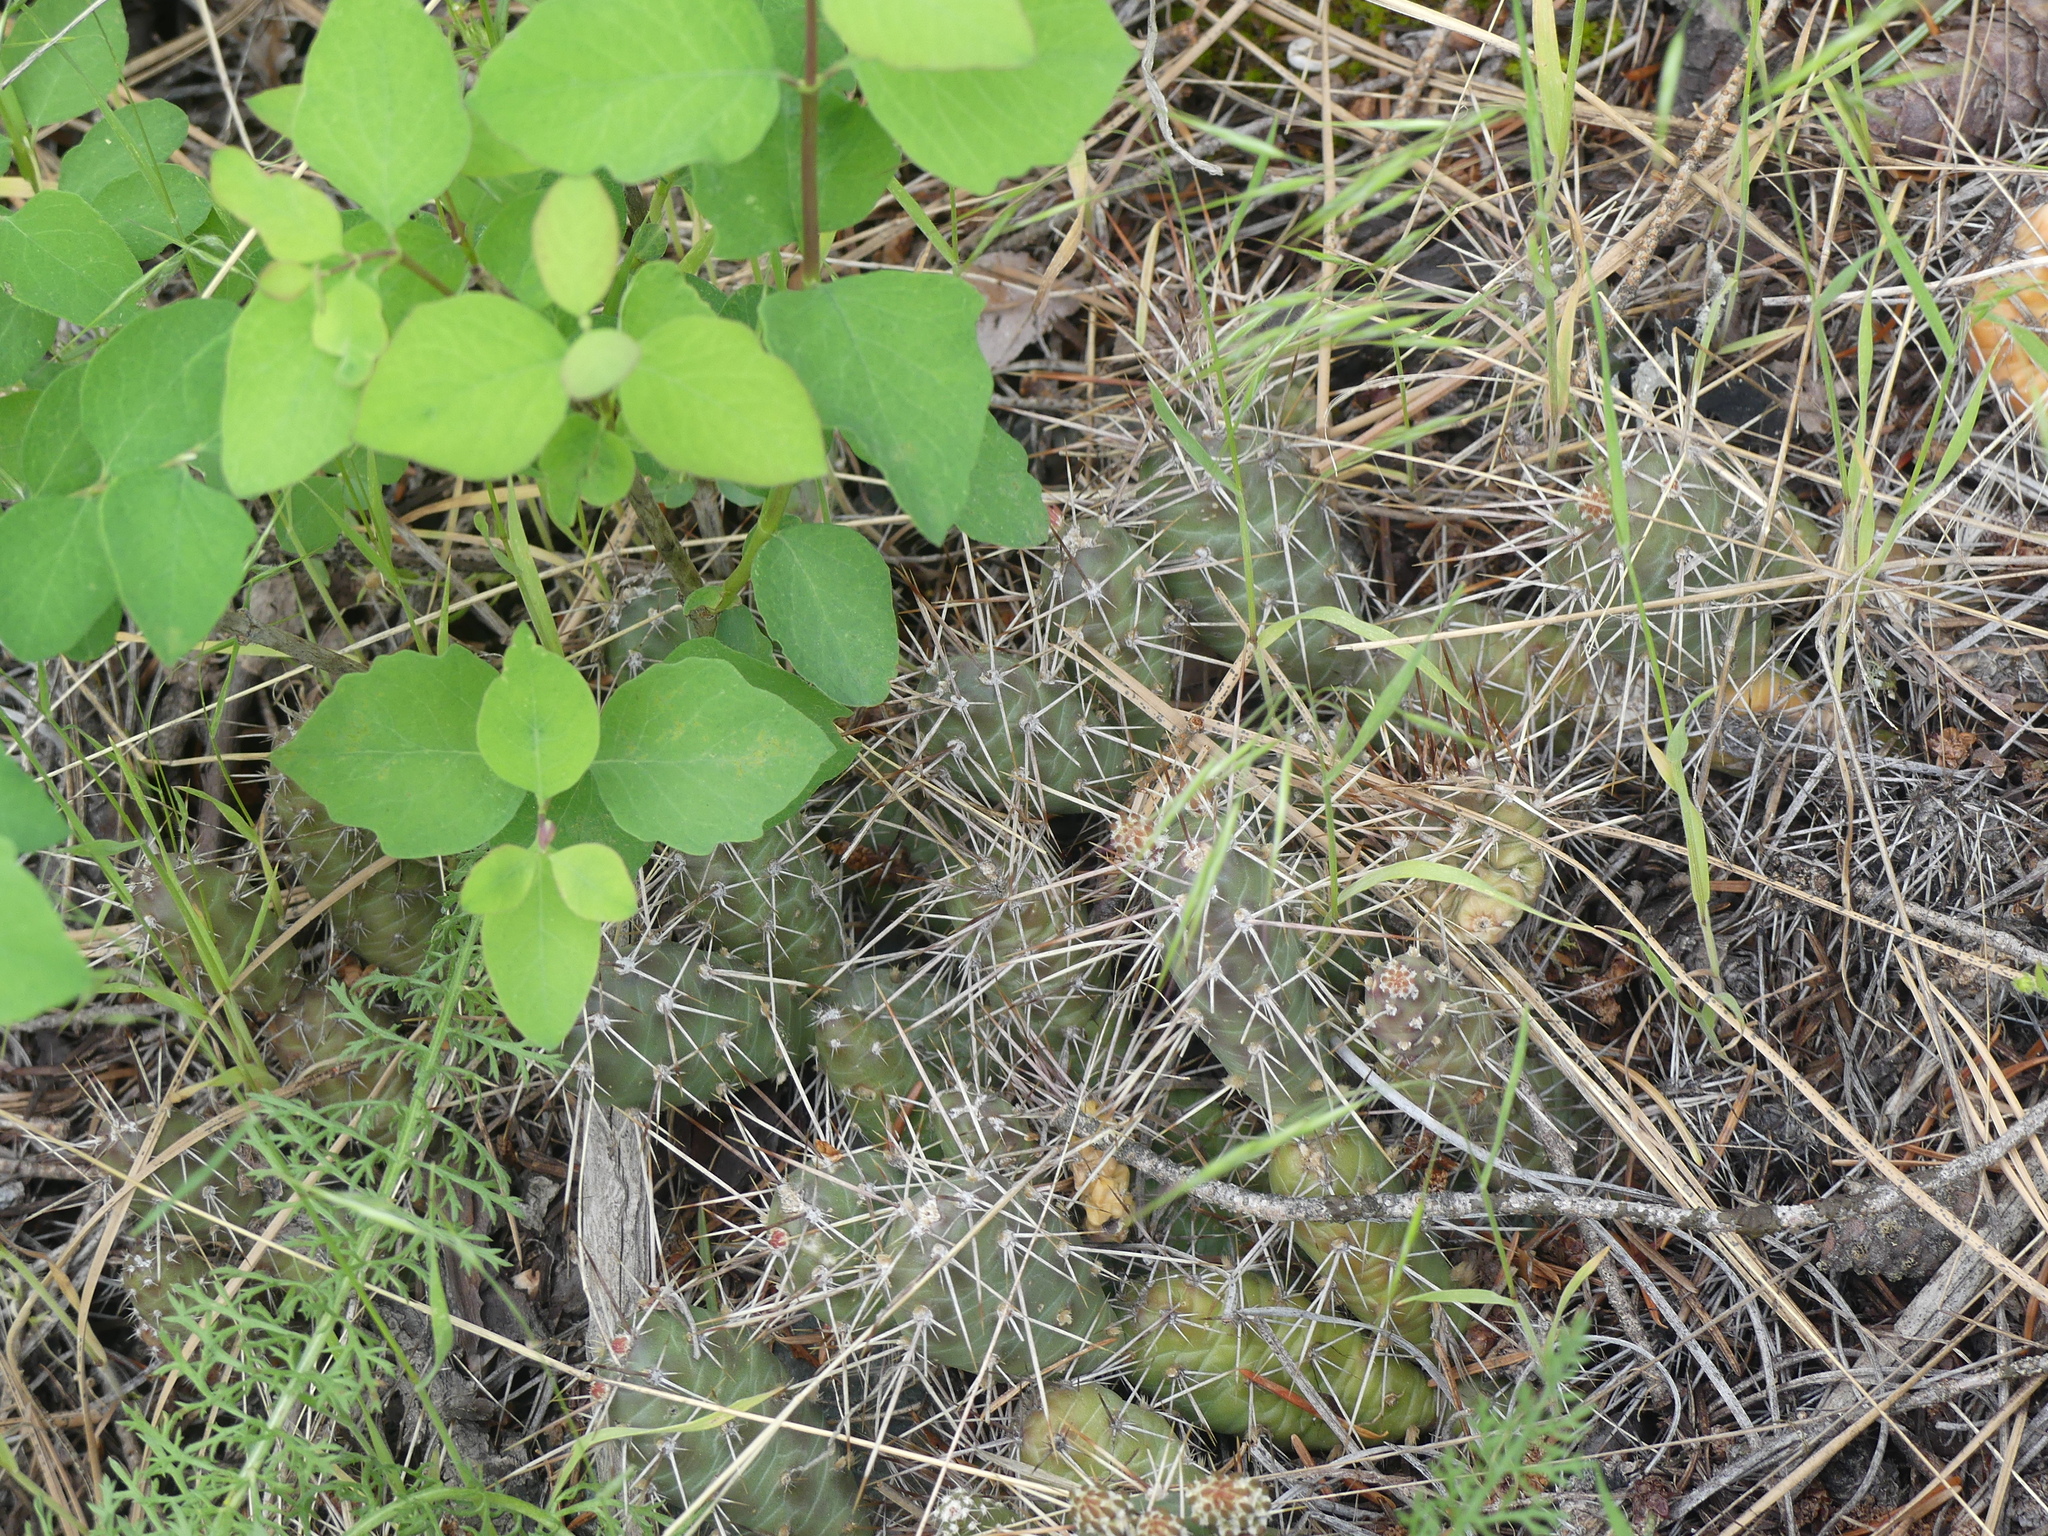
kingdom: Plantae
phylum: Tracheophyta
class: Magnoliopsida
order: Caryophyllales
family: Cactaceae
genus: Opuntia
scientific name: Opuntia fragilis
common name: Brittle cactus
